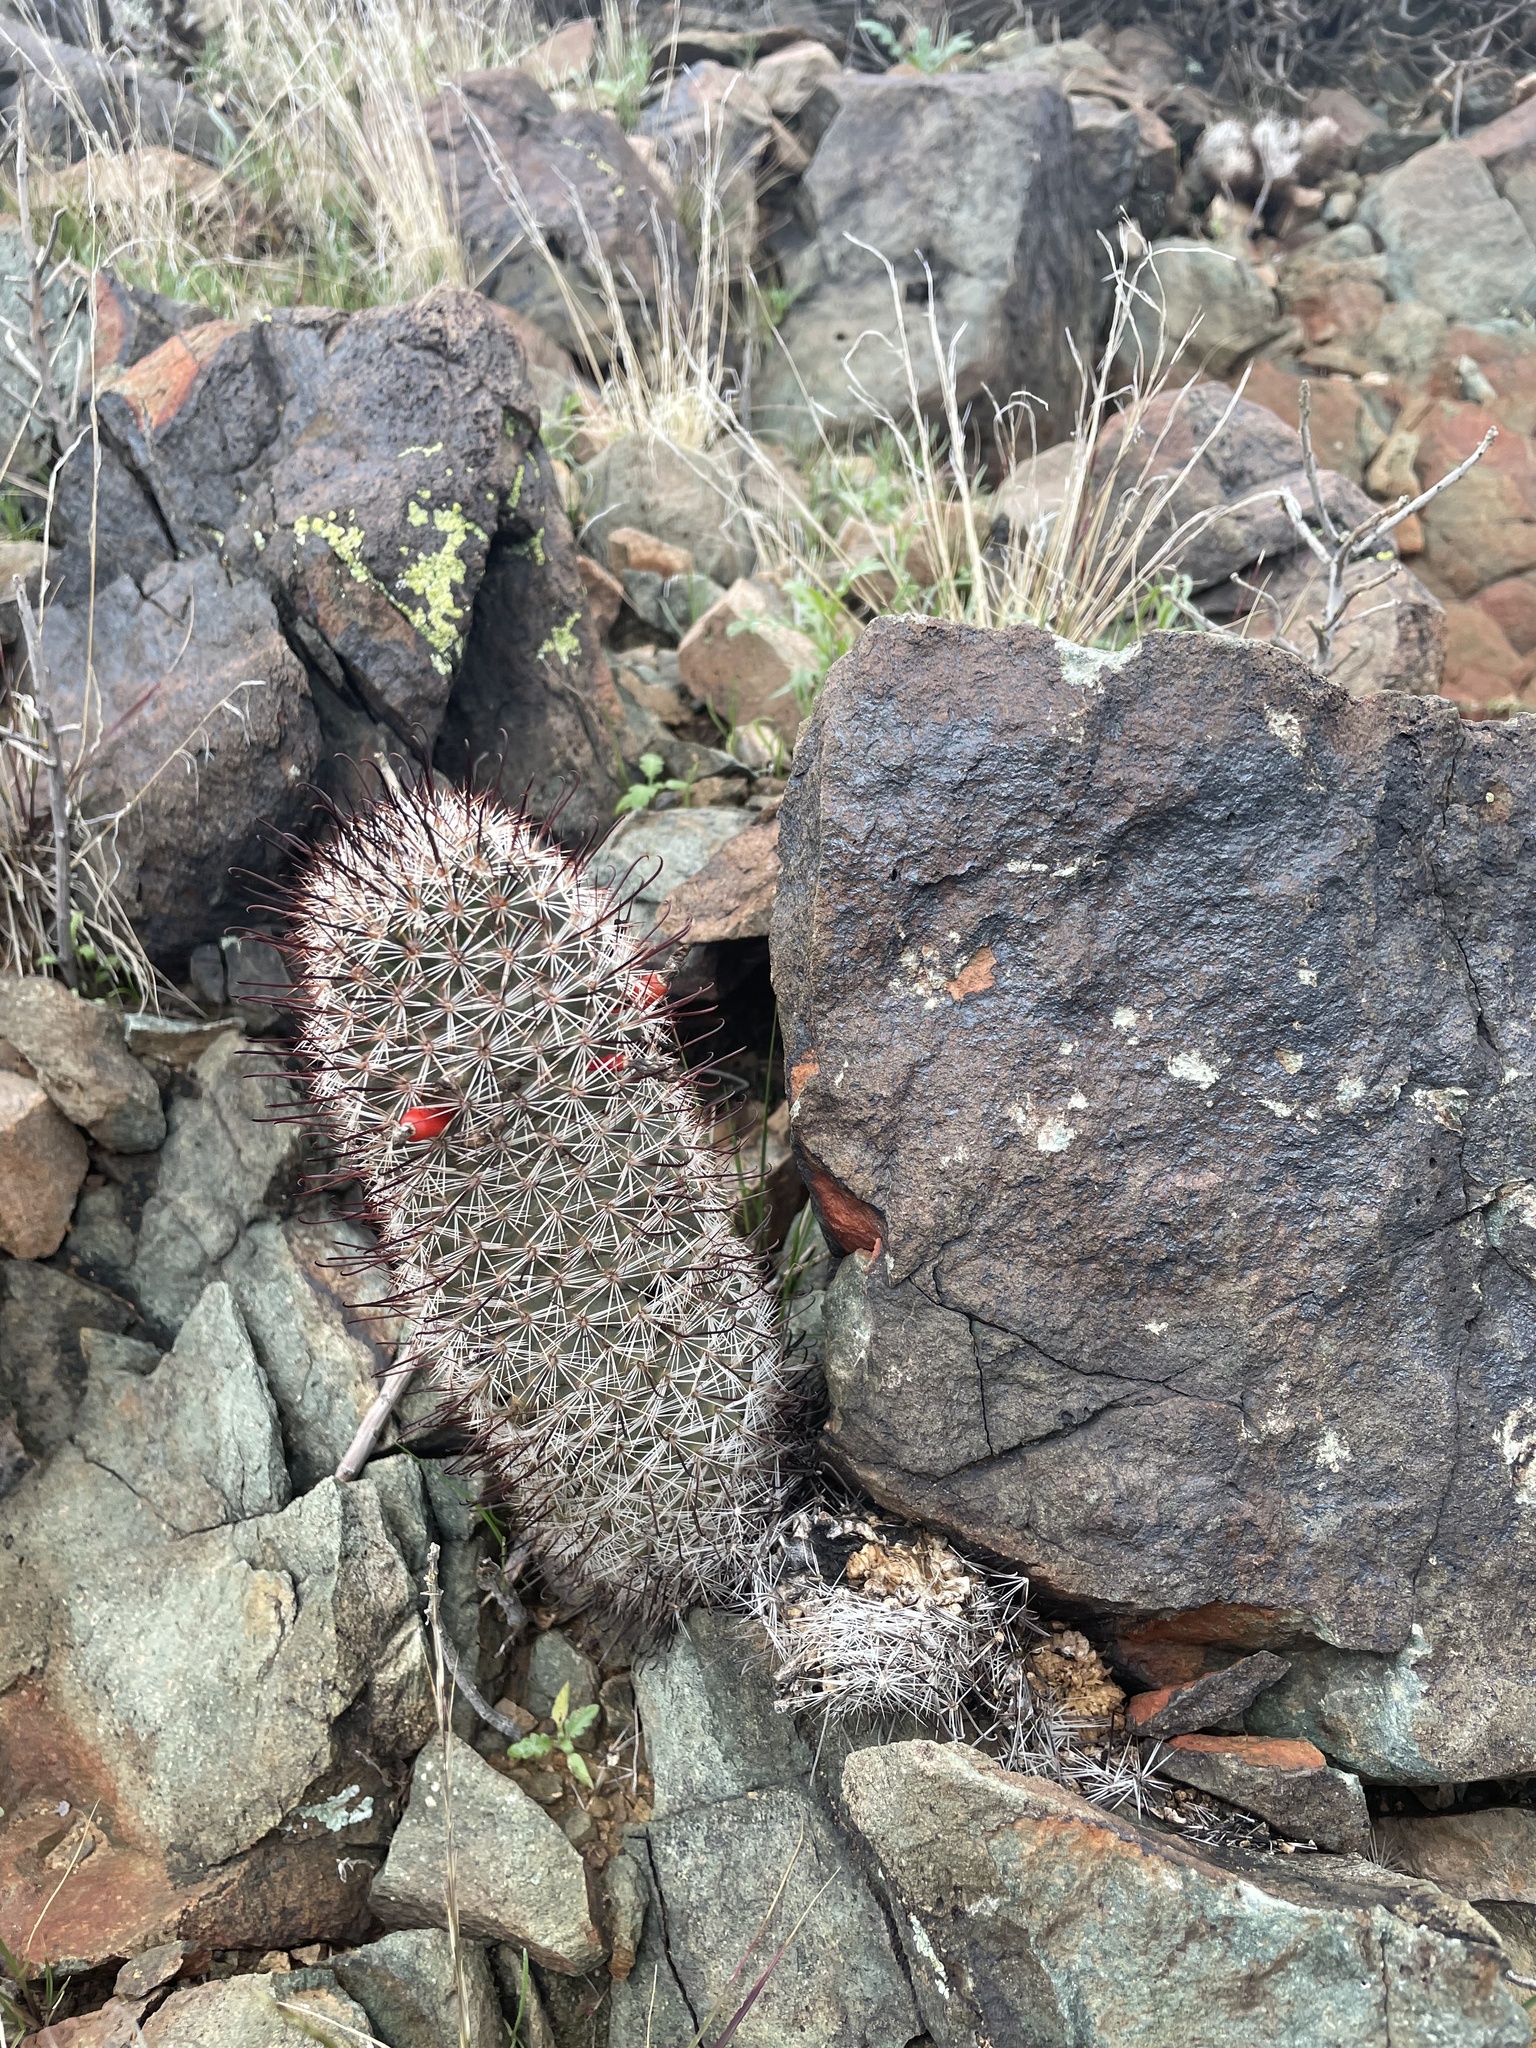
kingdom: Plantae
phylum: Tracheophyta
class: Magnoliopsida
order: Caryophyllales
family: Cactaceae
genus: Cochemiea
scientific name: Cochemiea grahamii
